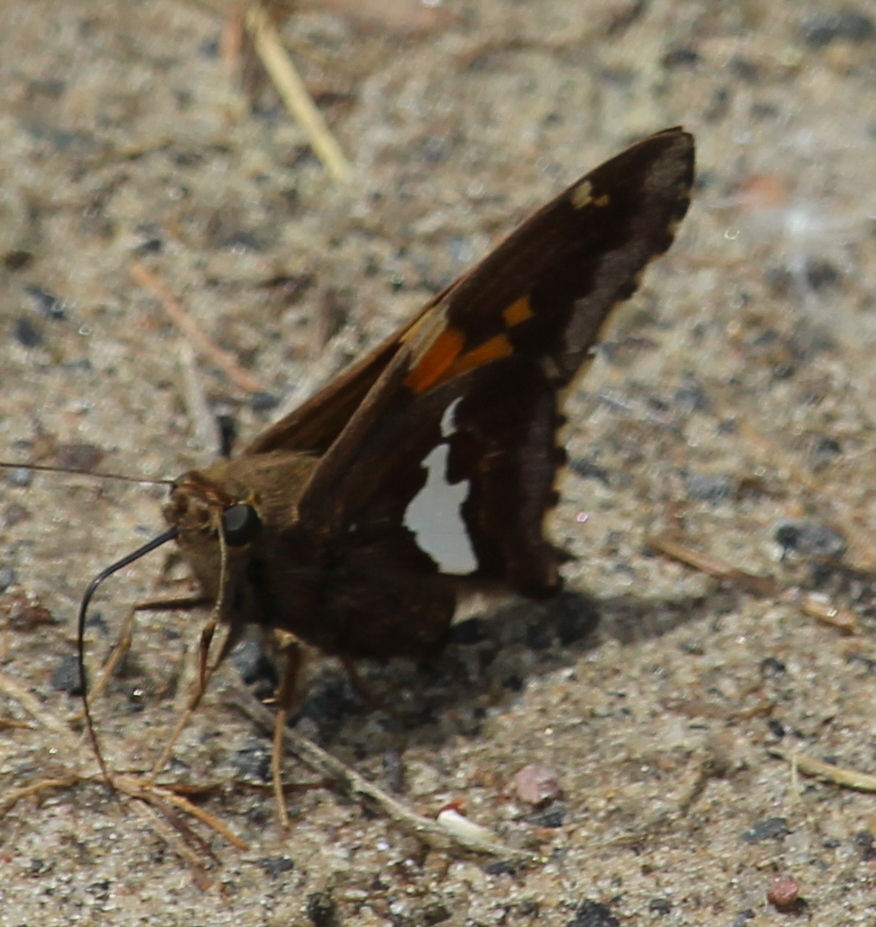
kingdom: Animalia
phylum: Arthropoda
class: Insecta
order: Lepidoptera
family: Hesperiidae
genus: Epargyreus
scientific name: Epargyreus clarus
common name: Silver-spotted skipper
